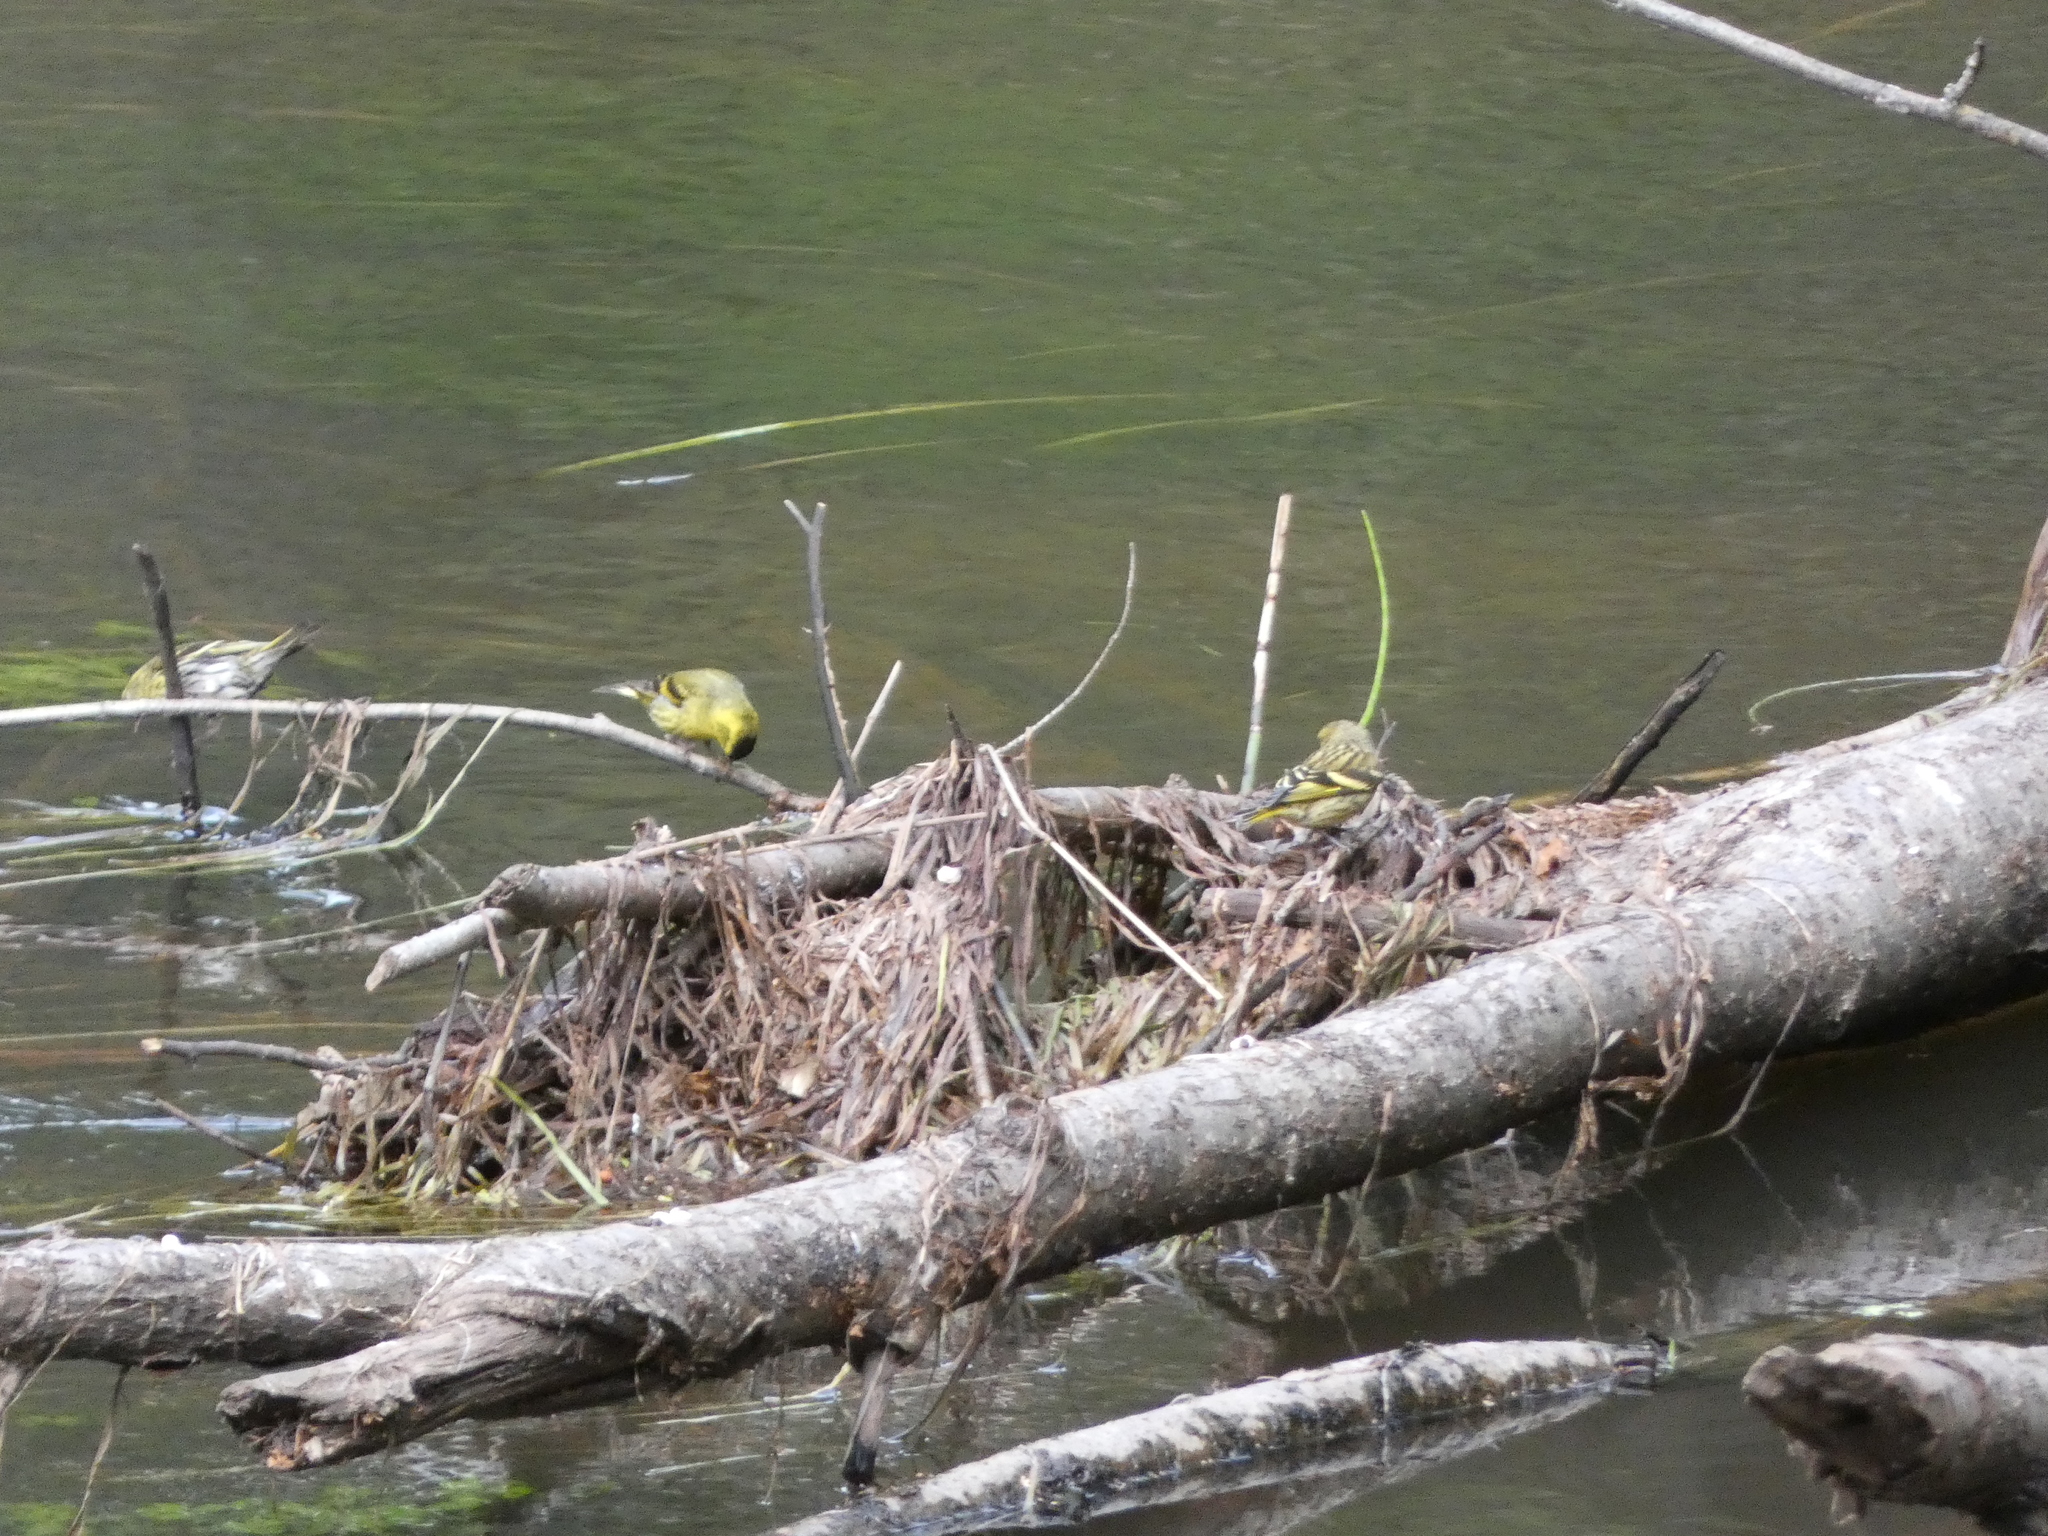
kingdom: Animalia
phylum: Chordata
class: Aves
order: Passeriformes
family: Fringillidae
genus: Spinus
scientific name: Spinus spinus
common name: Eurasian siskin
